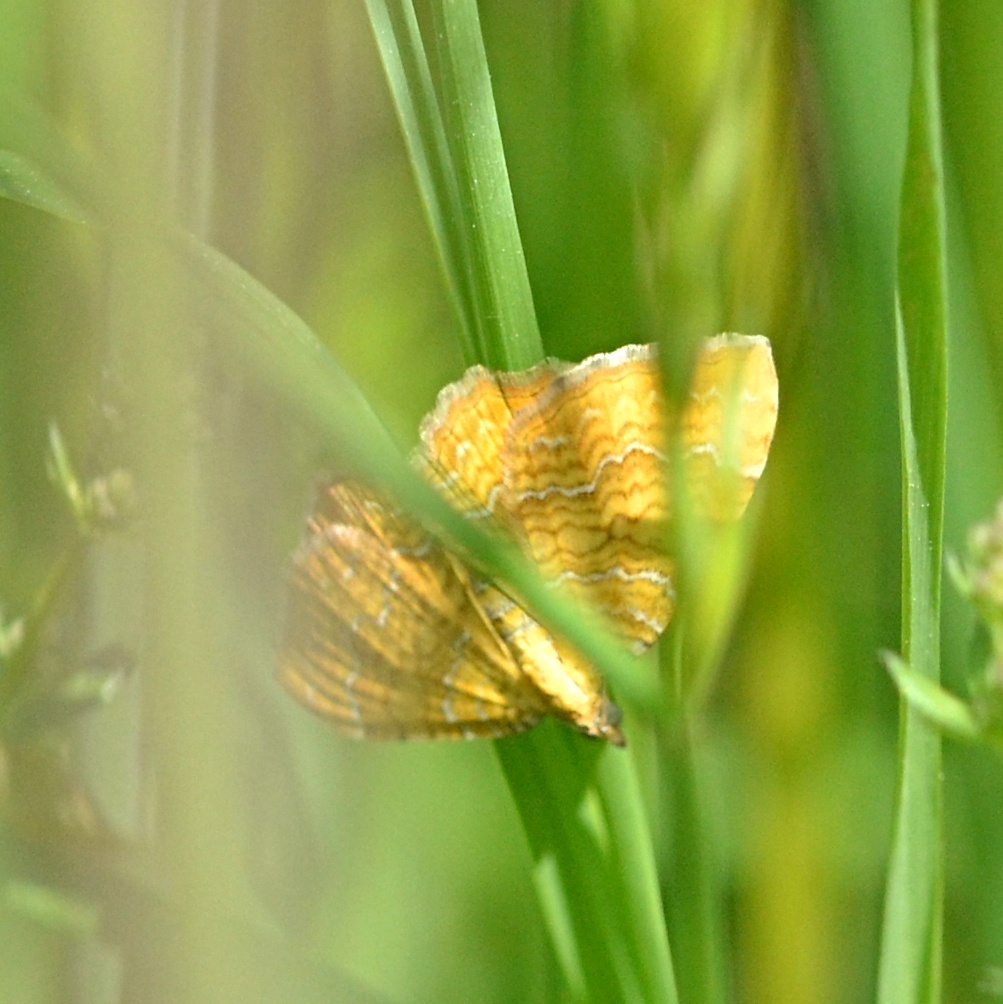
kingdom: Animalia
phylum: Arthropoda
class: Insecta
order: Lepidoptera
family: Geometridae
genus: Camptogramma
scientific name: Camptogramma bilineata
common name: Yellow shell
